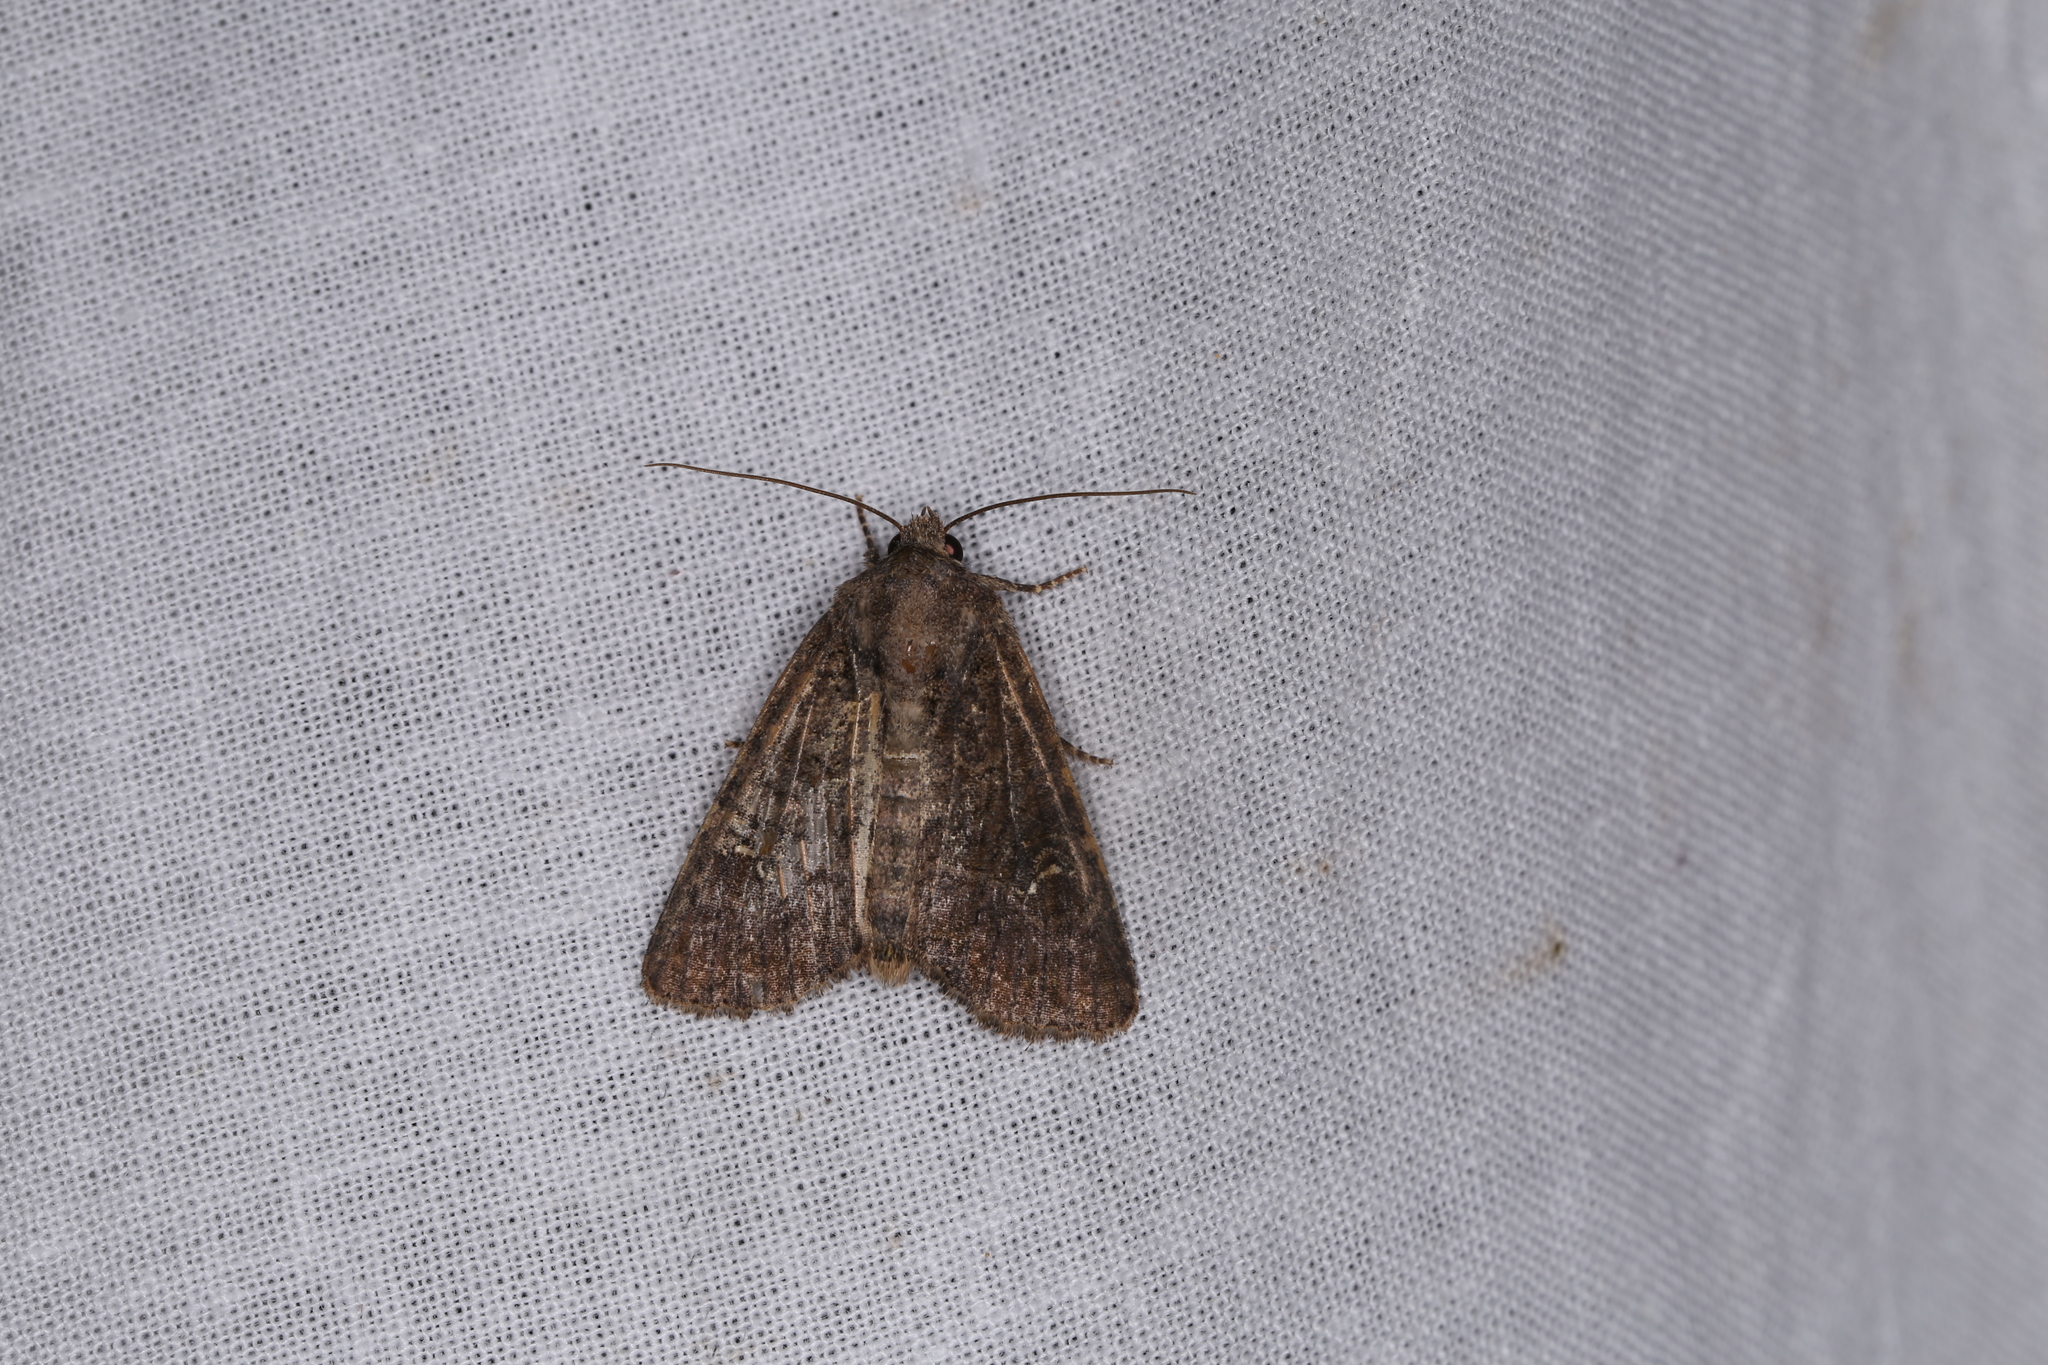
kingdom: Animalia
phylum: Arthropoda
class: Insecta
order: Lepidoptera
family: Noctuidae
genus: Mesapamea
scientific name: Mesapamea
